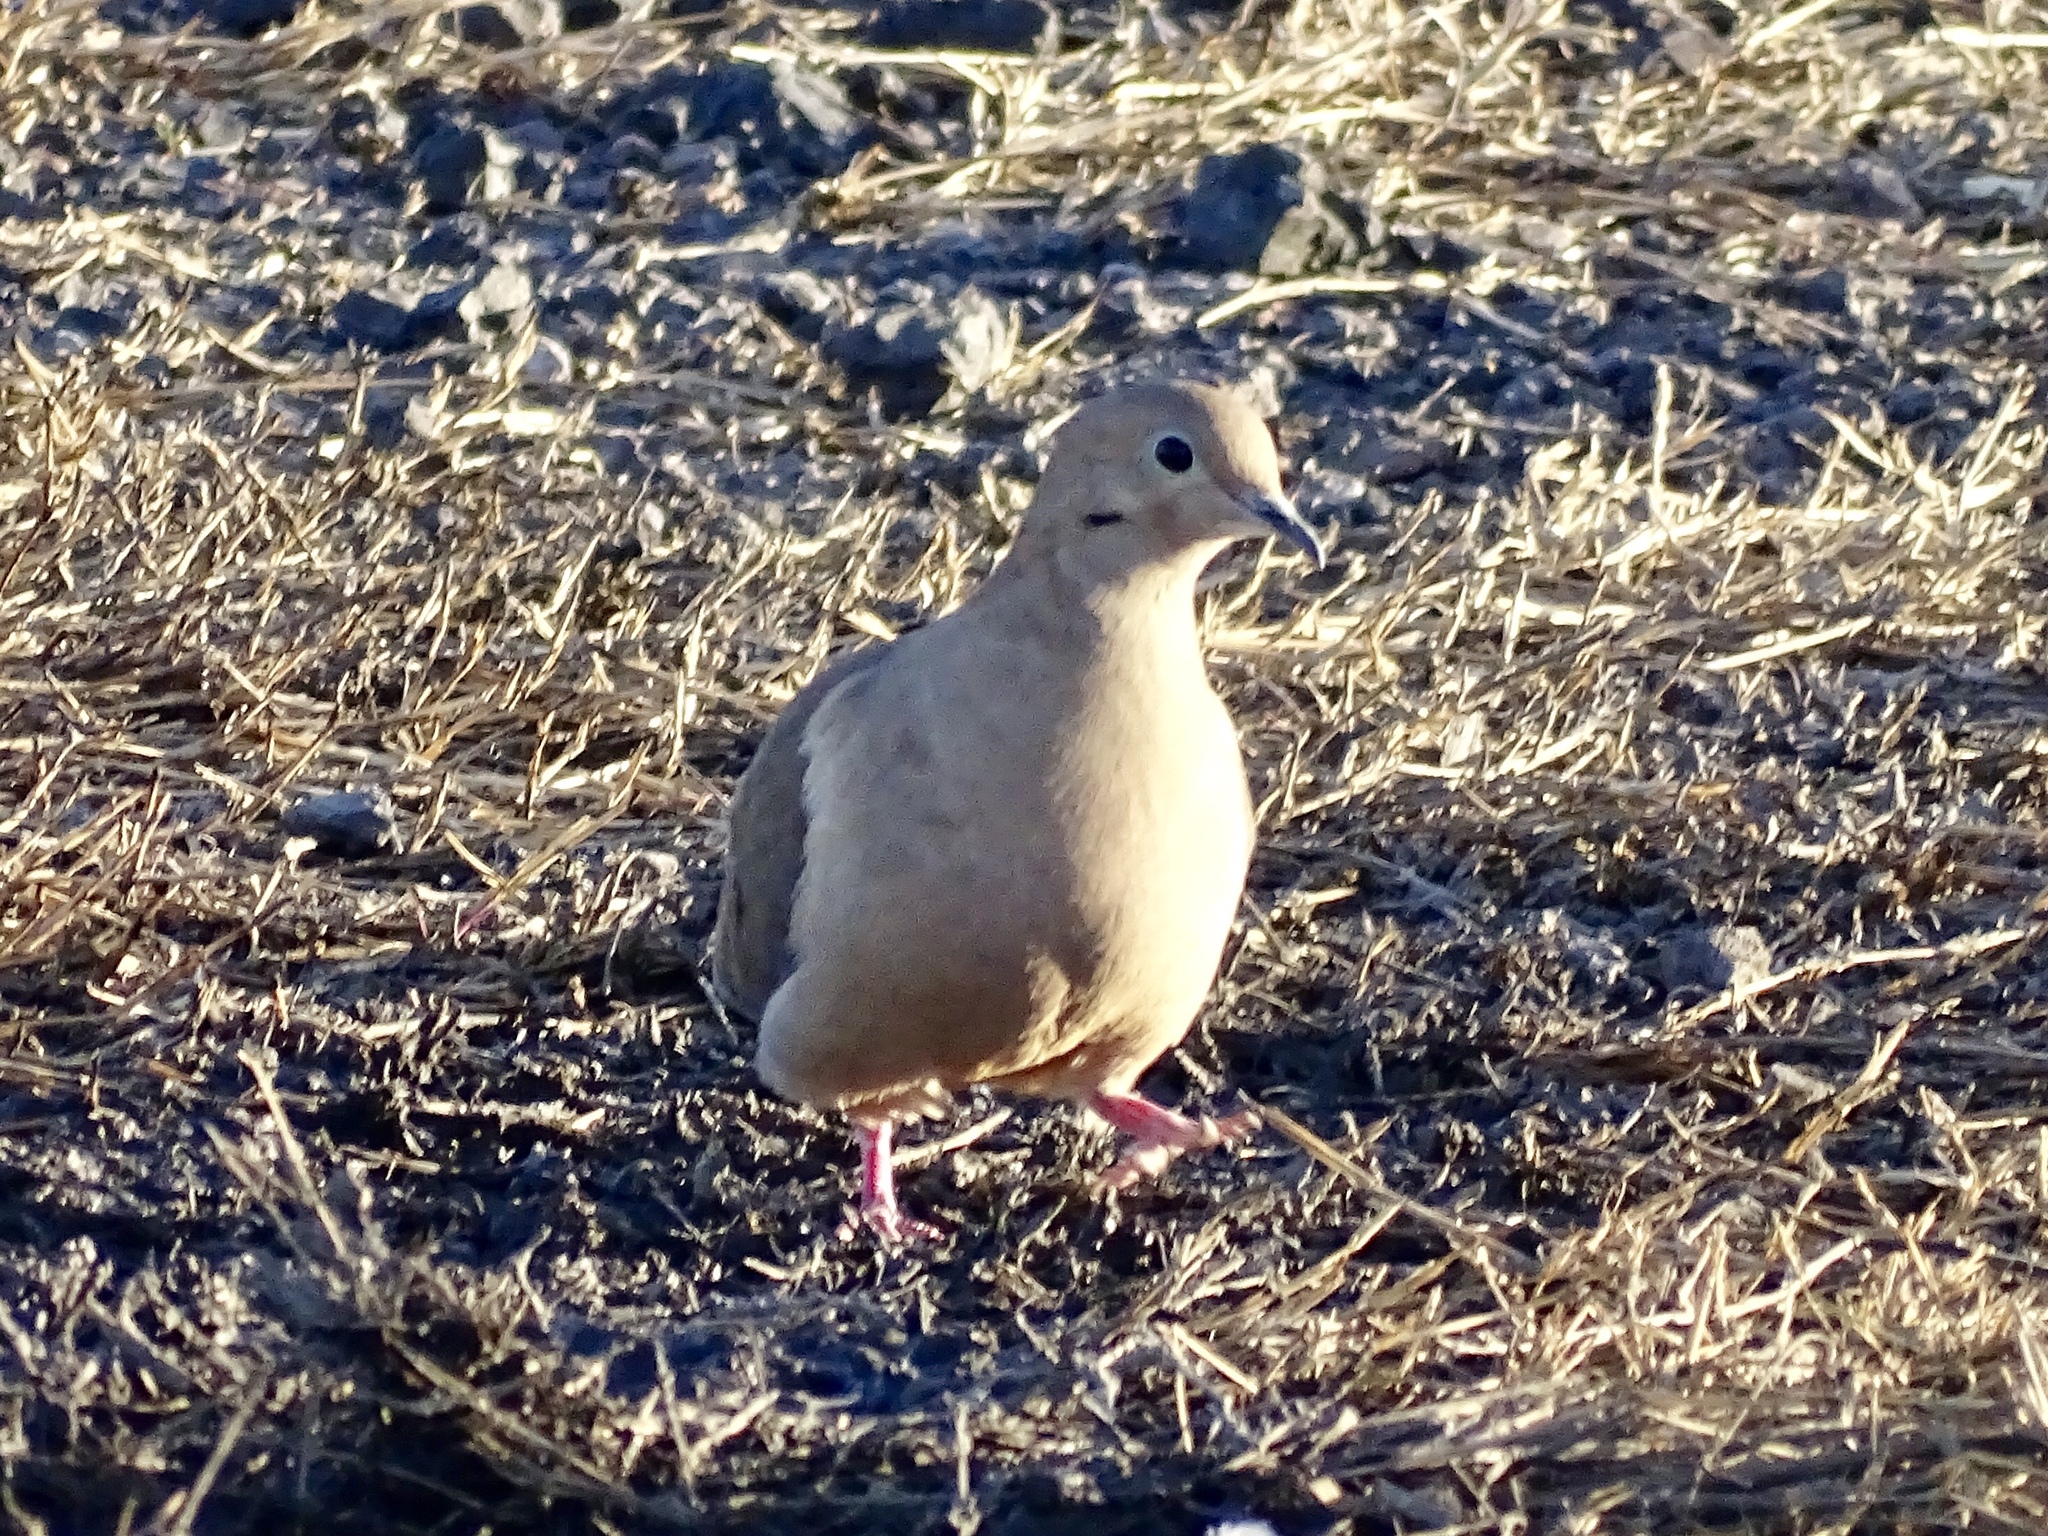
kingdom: Animalia
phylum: Chordata
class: Aves
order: Columbiformes
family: Columbidae
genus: Zenaida
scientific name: Zenaida macroura
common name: Mourning dove
